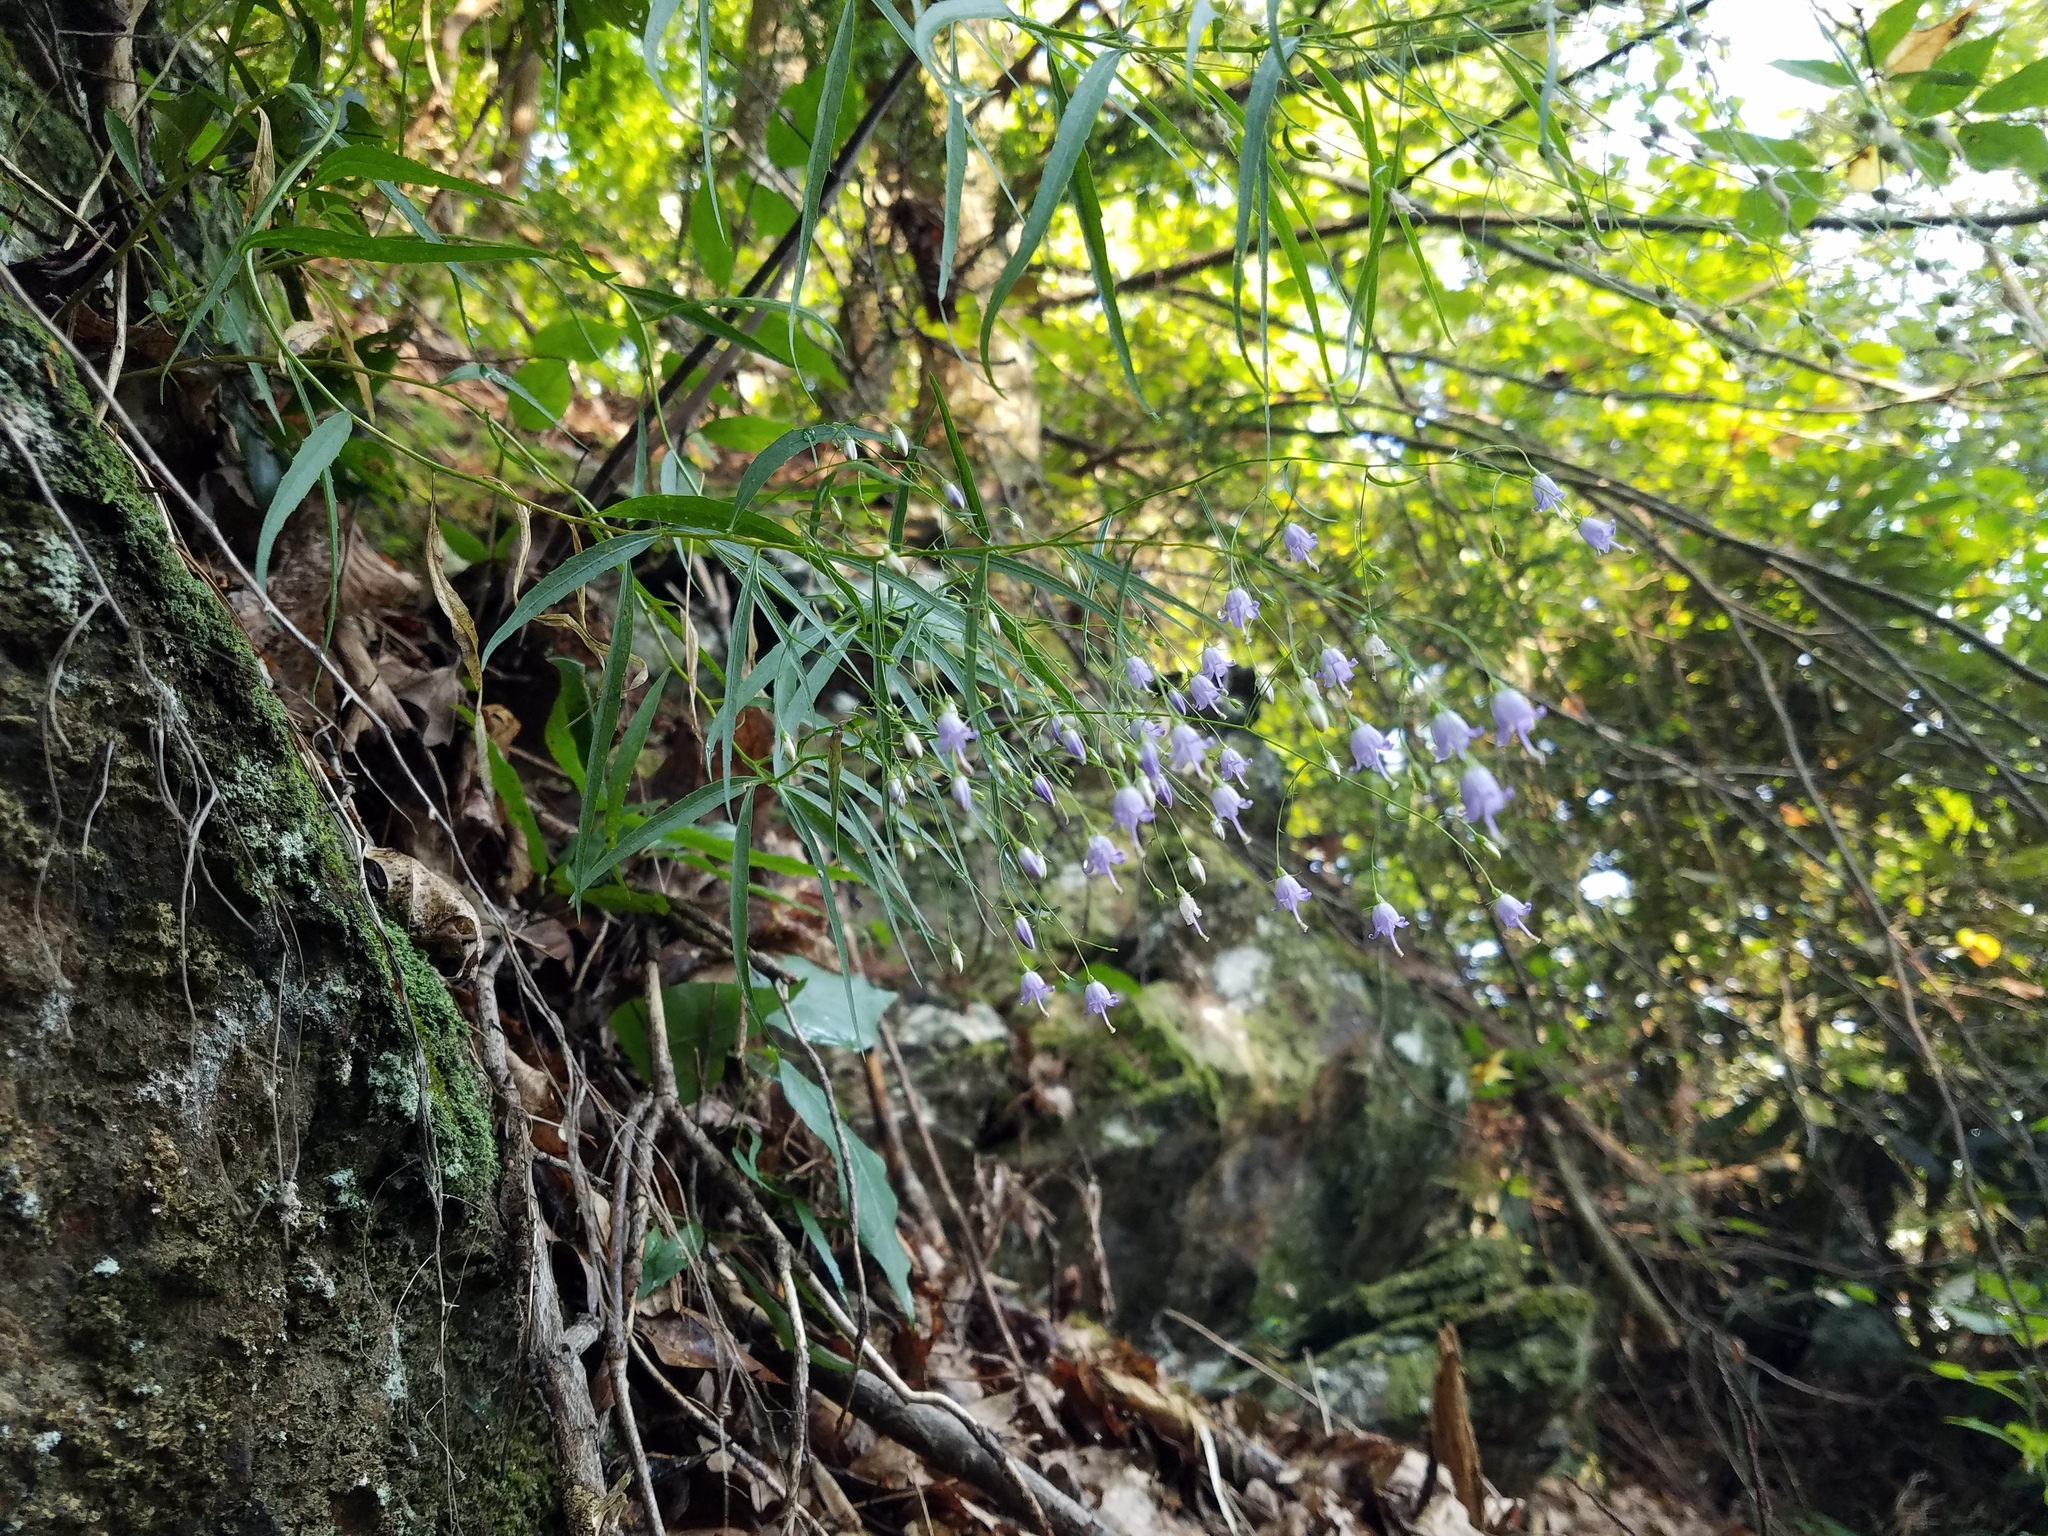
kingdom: Plantae
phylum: Tracheophyta
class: Magnoliopsida
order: Asterales
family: Campanulaceae
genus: Campanula
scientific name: Campanula divaricata
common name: Appalachian bellflower
